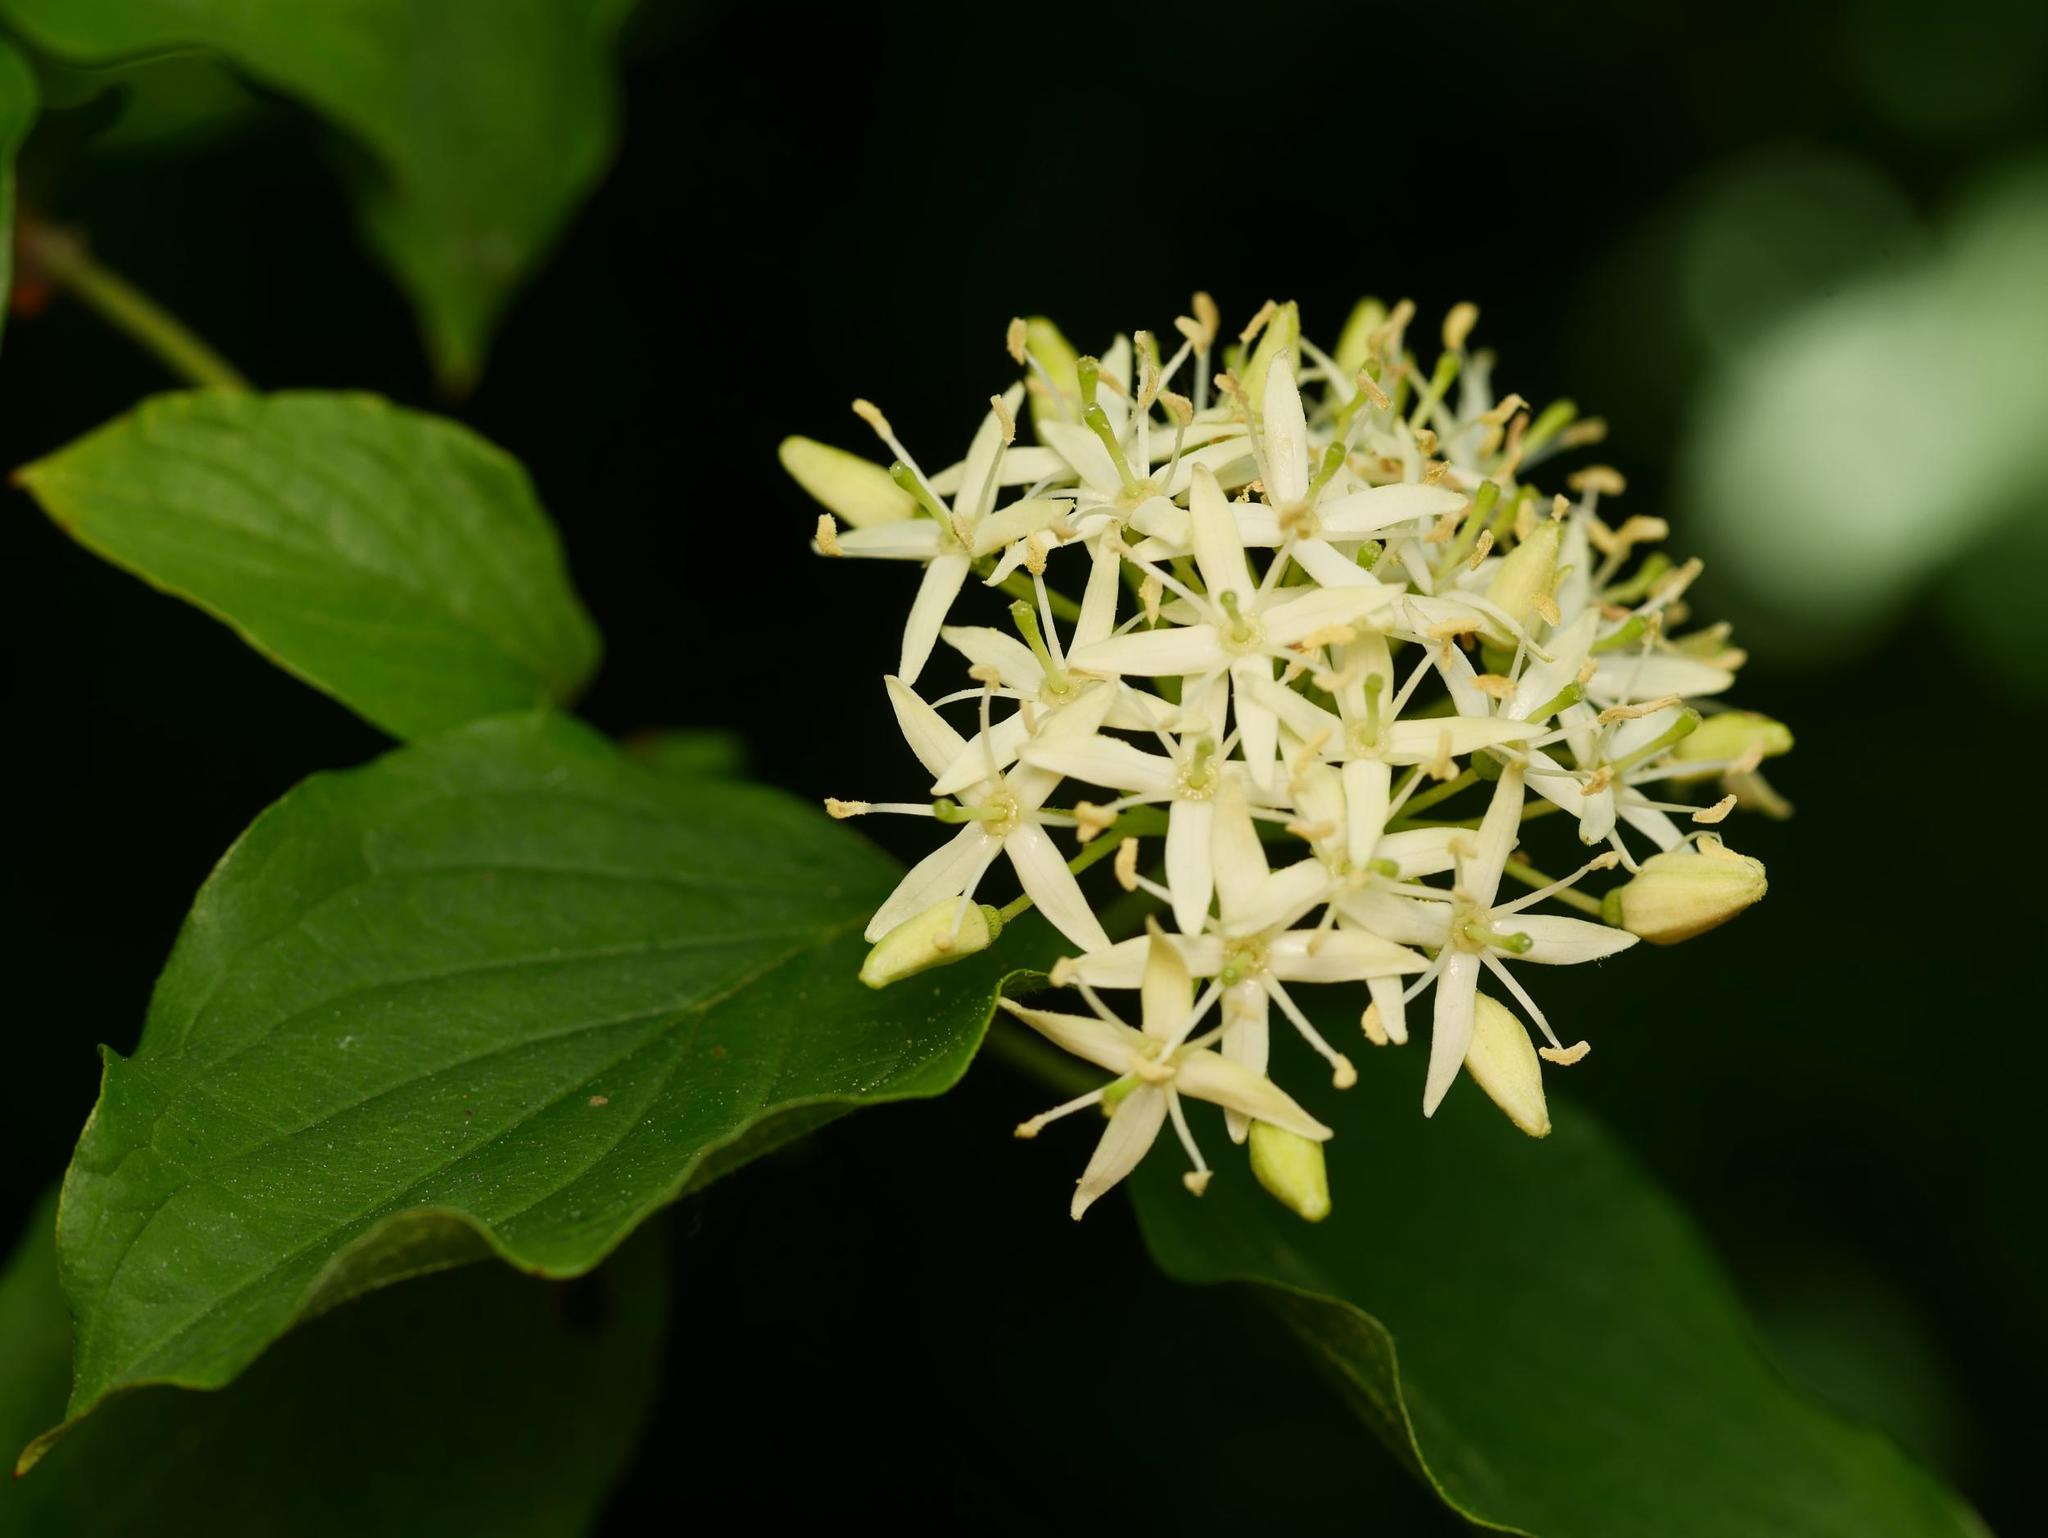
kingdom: Plantae
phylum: Tracheophyta
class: Magnoliopsida
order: Cornales
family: Cornaceae
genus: Cornus
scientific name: Cornus sanguinea
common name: Dogwood
